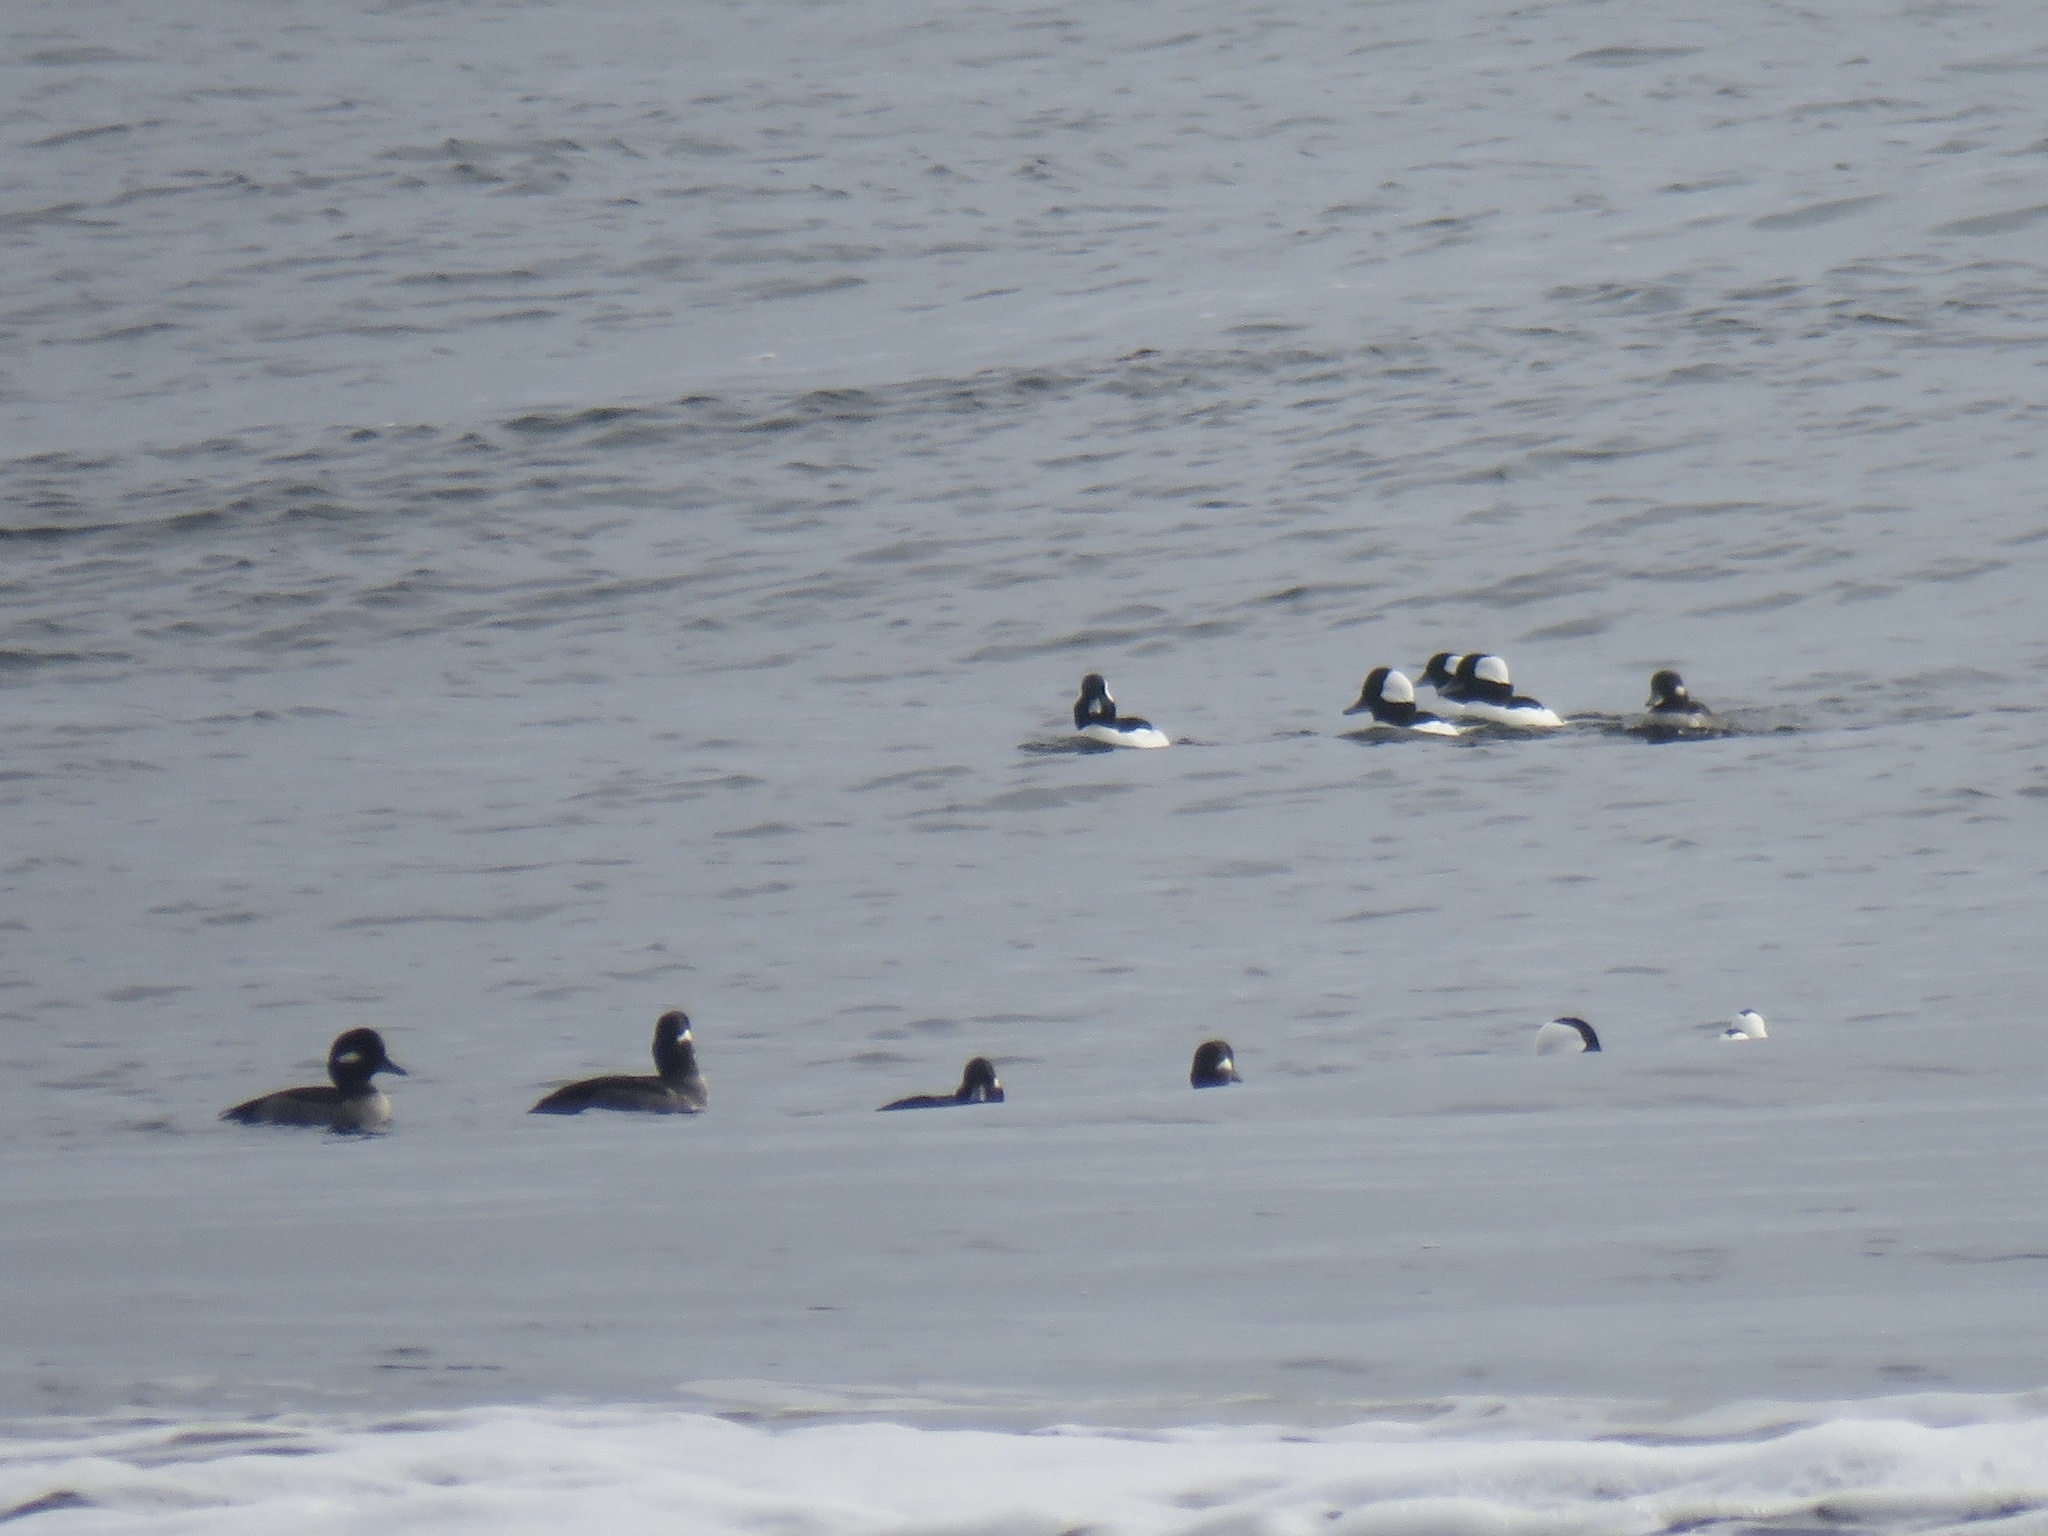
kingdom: Animalia
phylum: Chordata
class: Aves
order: Anseriformes
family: Anatidae
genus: Bucephala
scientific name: Bucephala albeola
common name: Bufflehead
